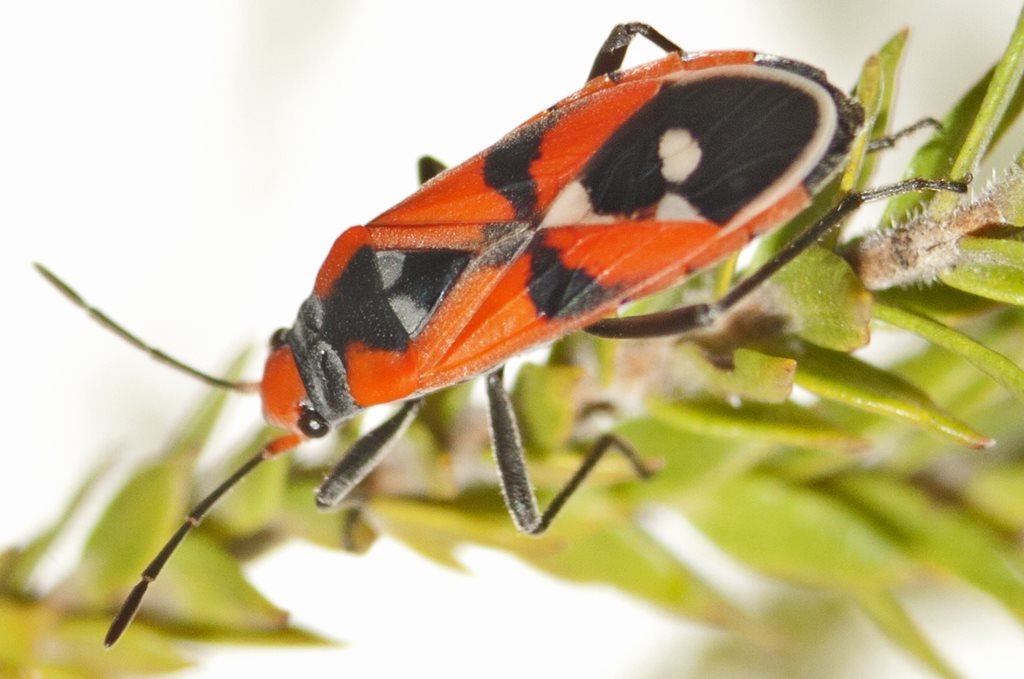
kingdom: Animalia
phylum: Arthropoda
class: Insecta
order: Hemiptera
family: Lygaeidae
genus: Melanerythrus
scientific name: Melanerythrus mactans
